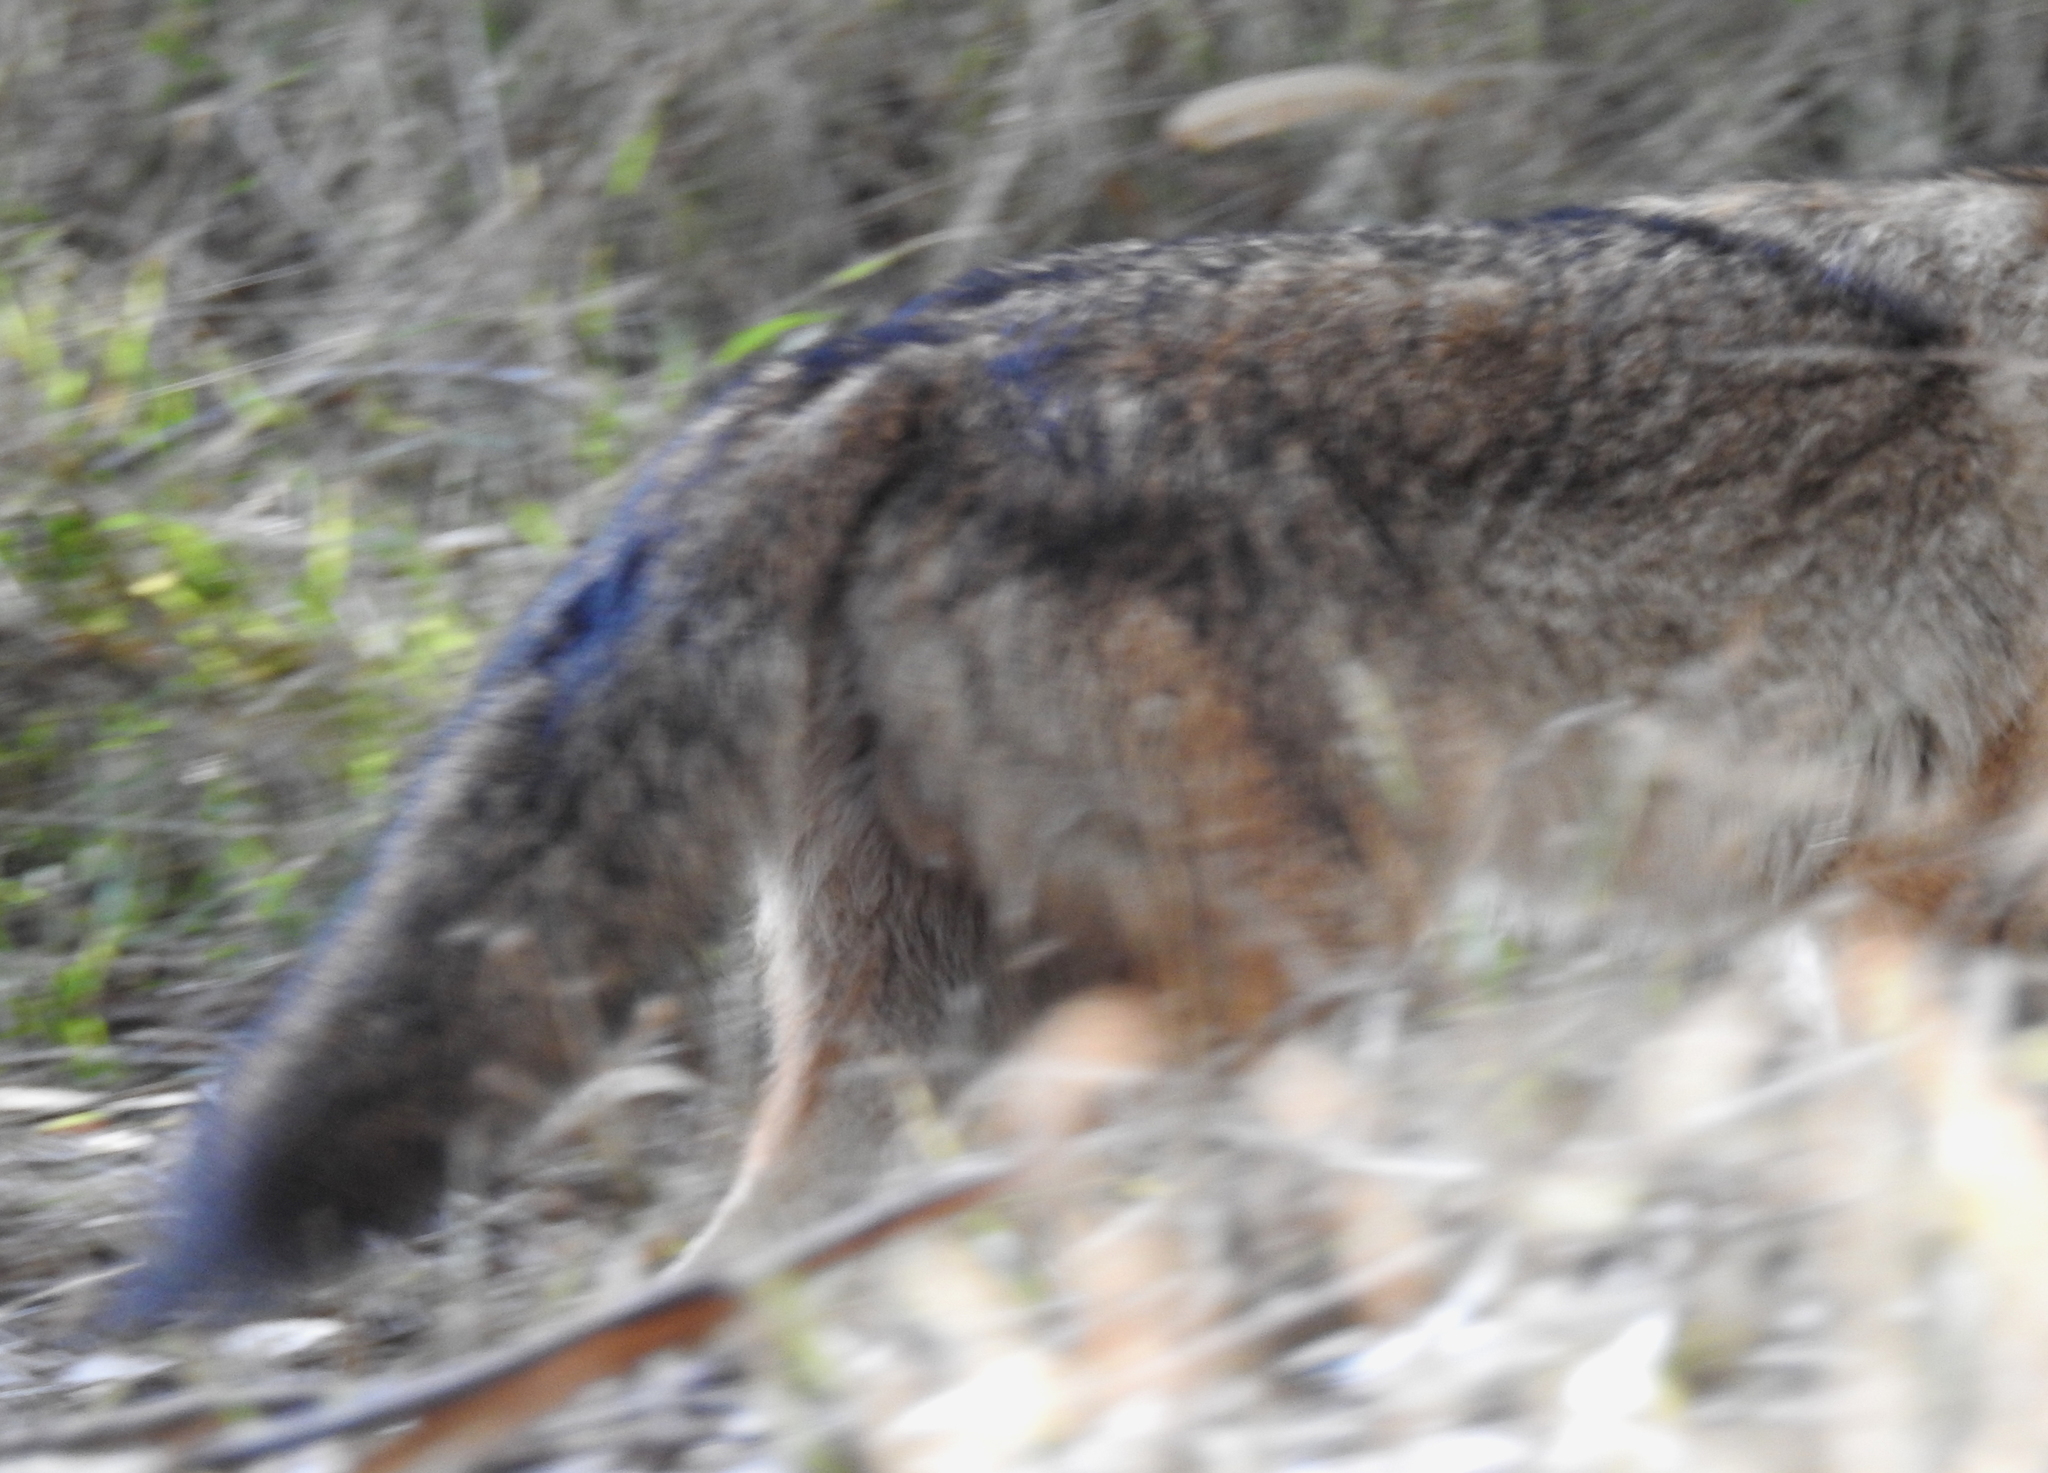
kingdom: Animalia
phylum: Chordata
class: Mammalia
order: Carnivora
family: Canidae
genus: Canis
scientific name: Canis latrans
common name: Coyote
